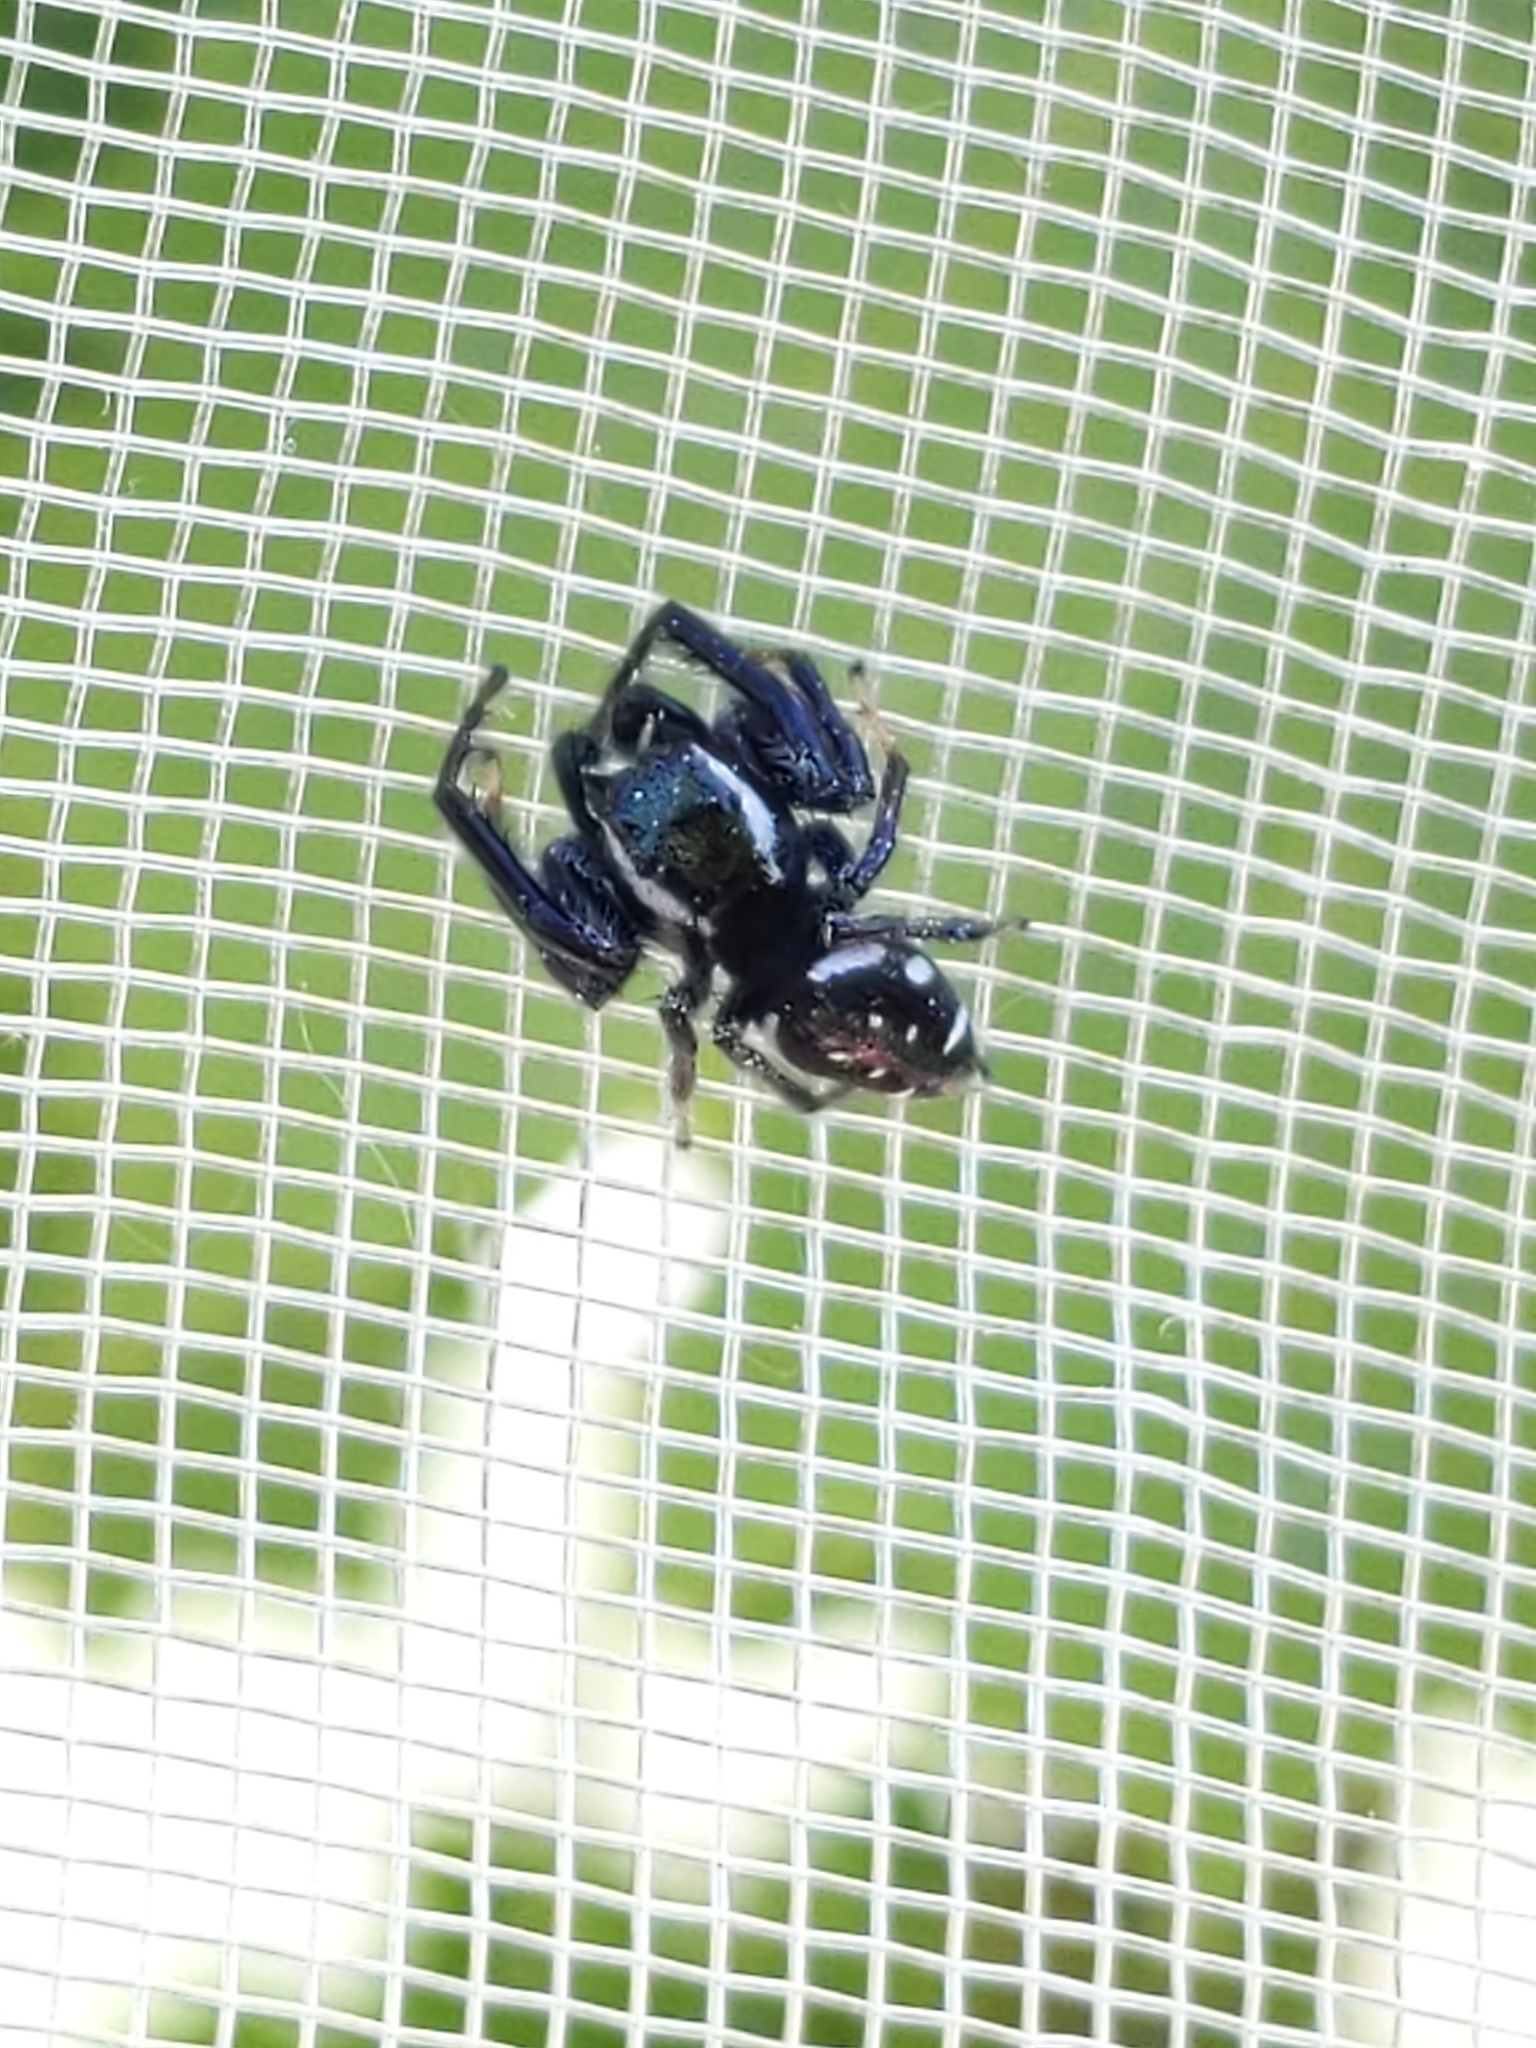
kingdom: Animalia
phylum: Arthropoda
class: Arachnida
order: Araneae
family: Salticidae
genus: Paraphidippus
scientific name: Paraphidippus aurantius
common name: Jumping spiders
